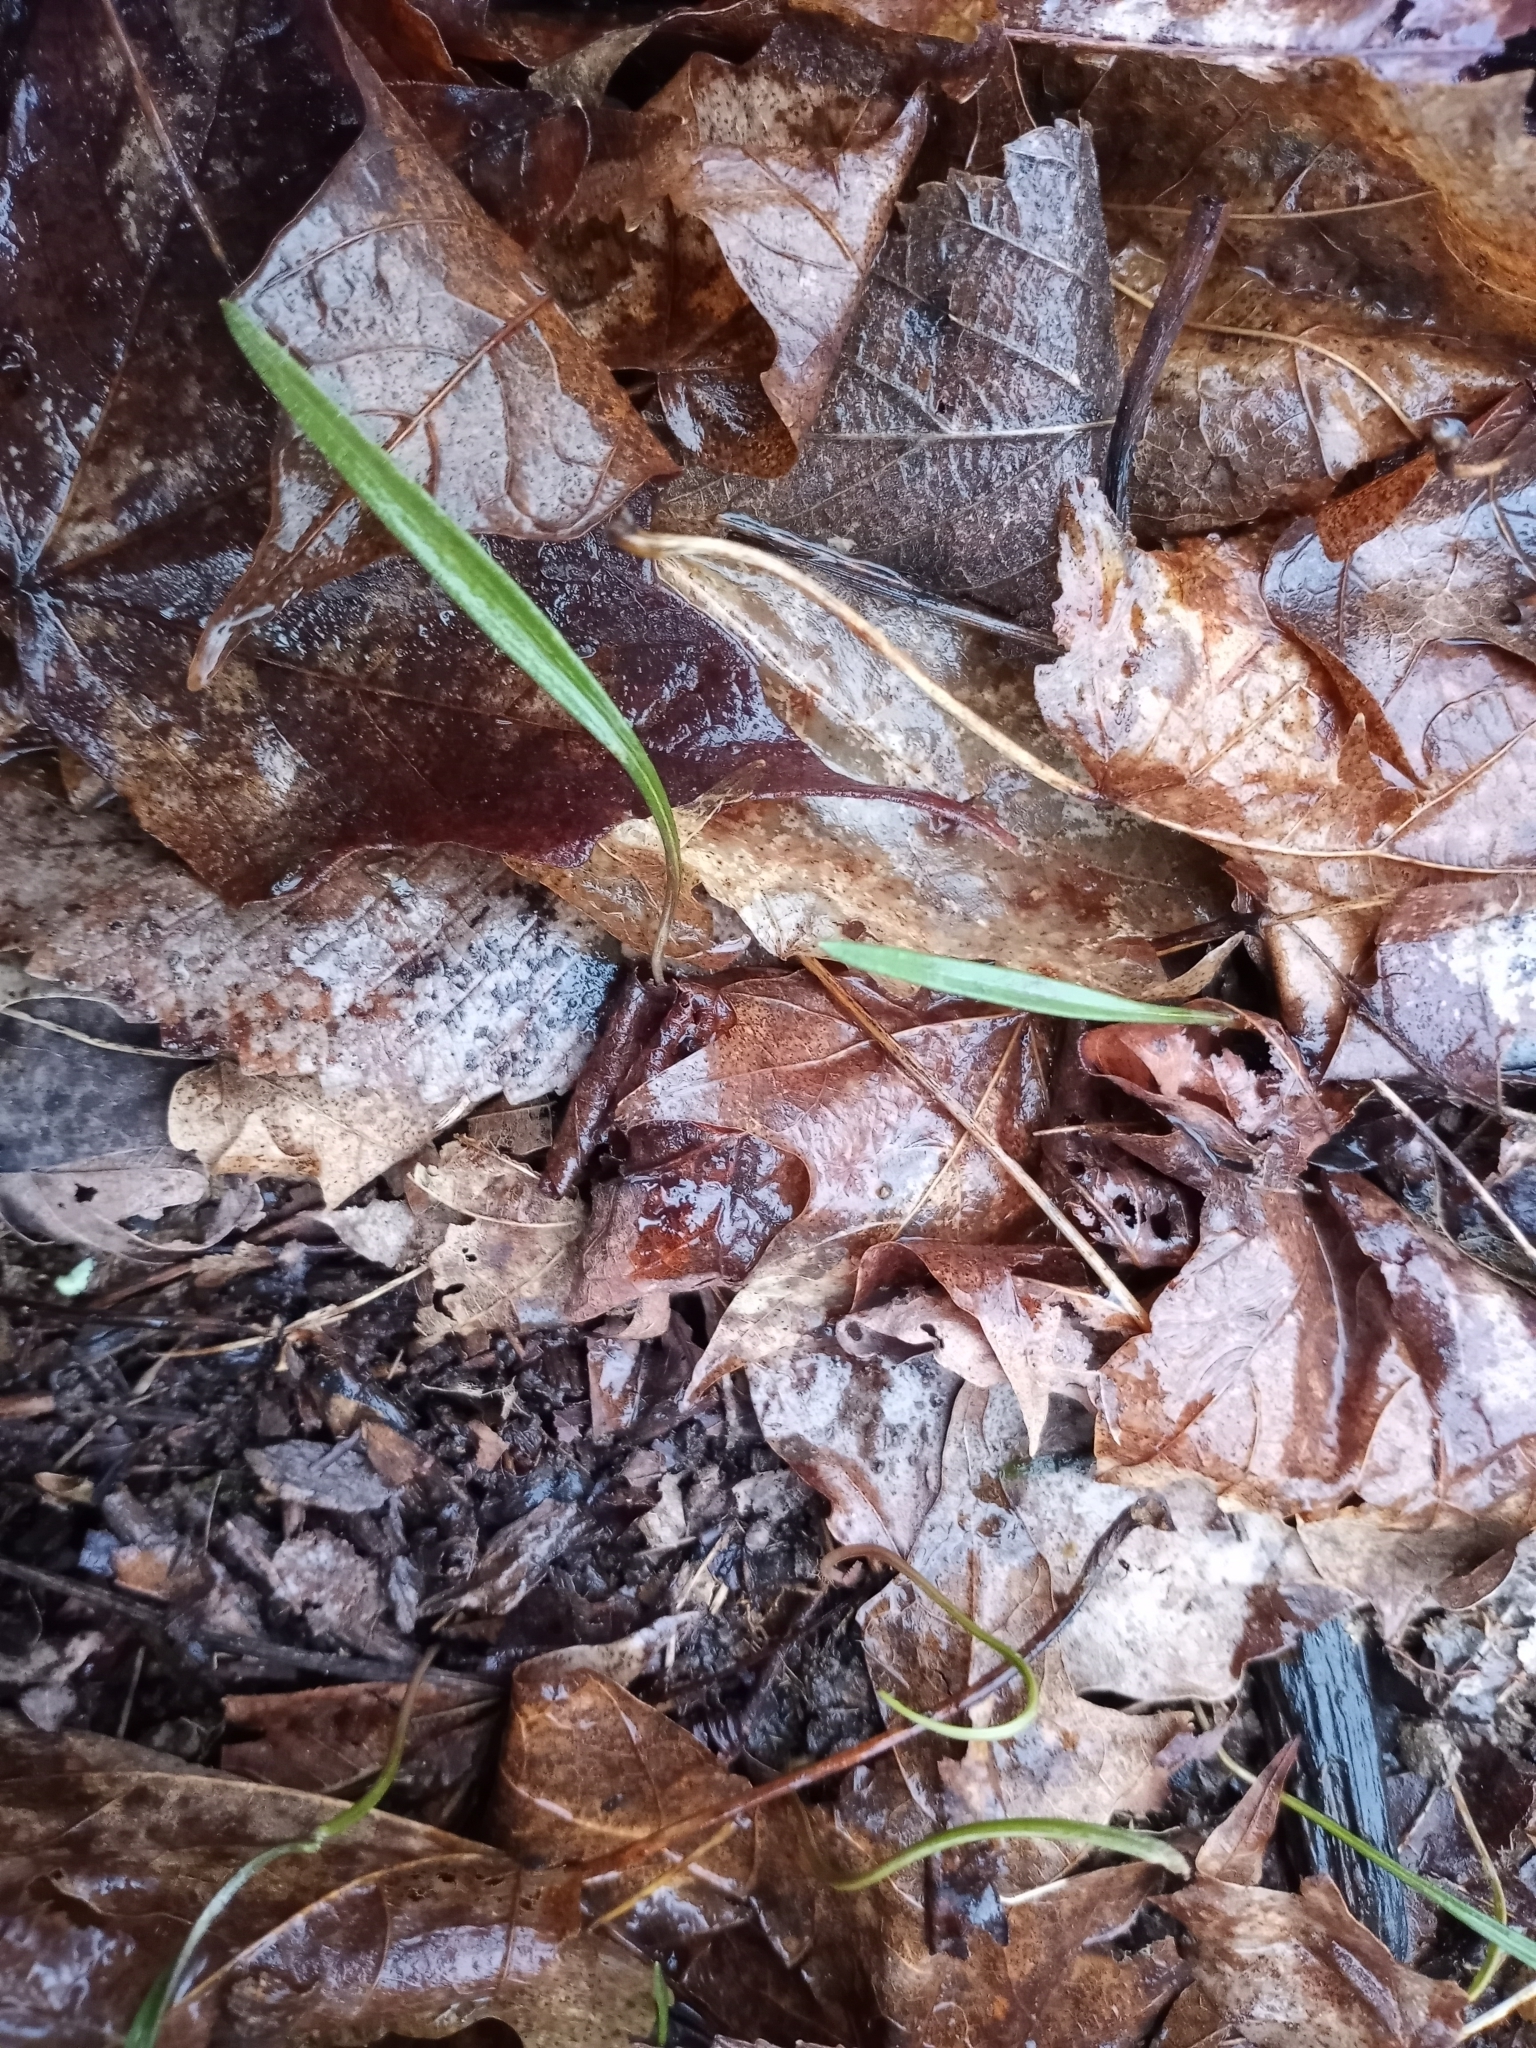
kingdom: Plantae
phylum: Tracheophyta
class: Magnoliopsida
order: Caryophyllales
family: Montiaceae
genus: Claytonia
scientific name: Claytonia virginica
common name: Virginia springbeauty
